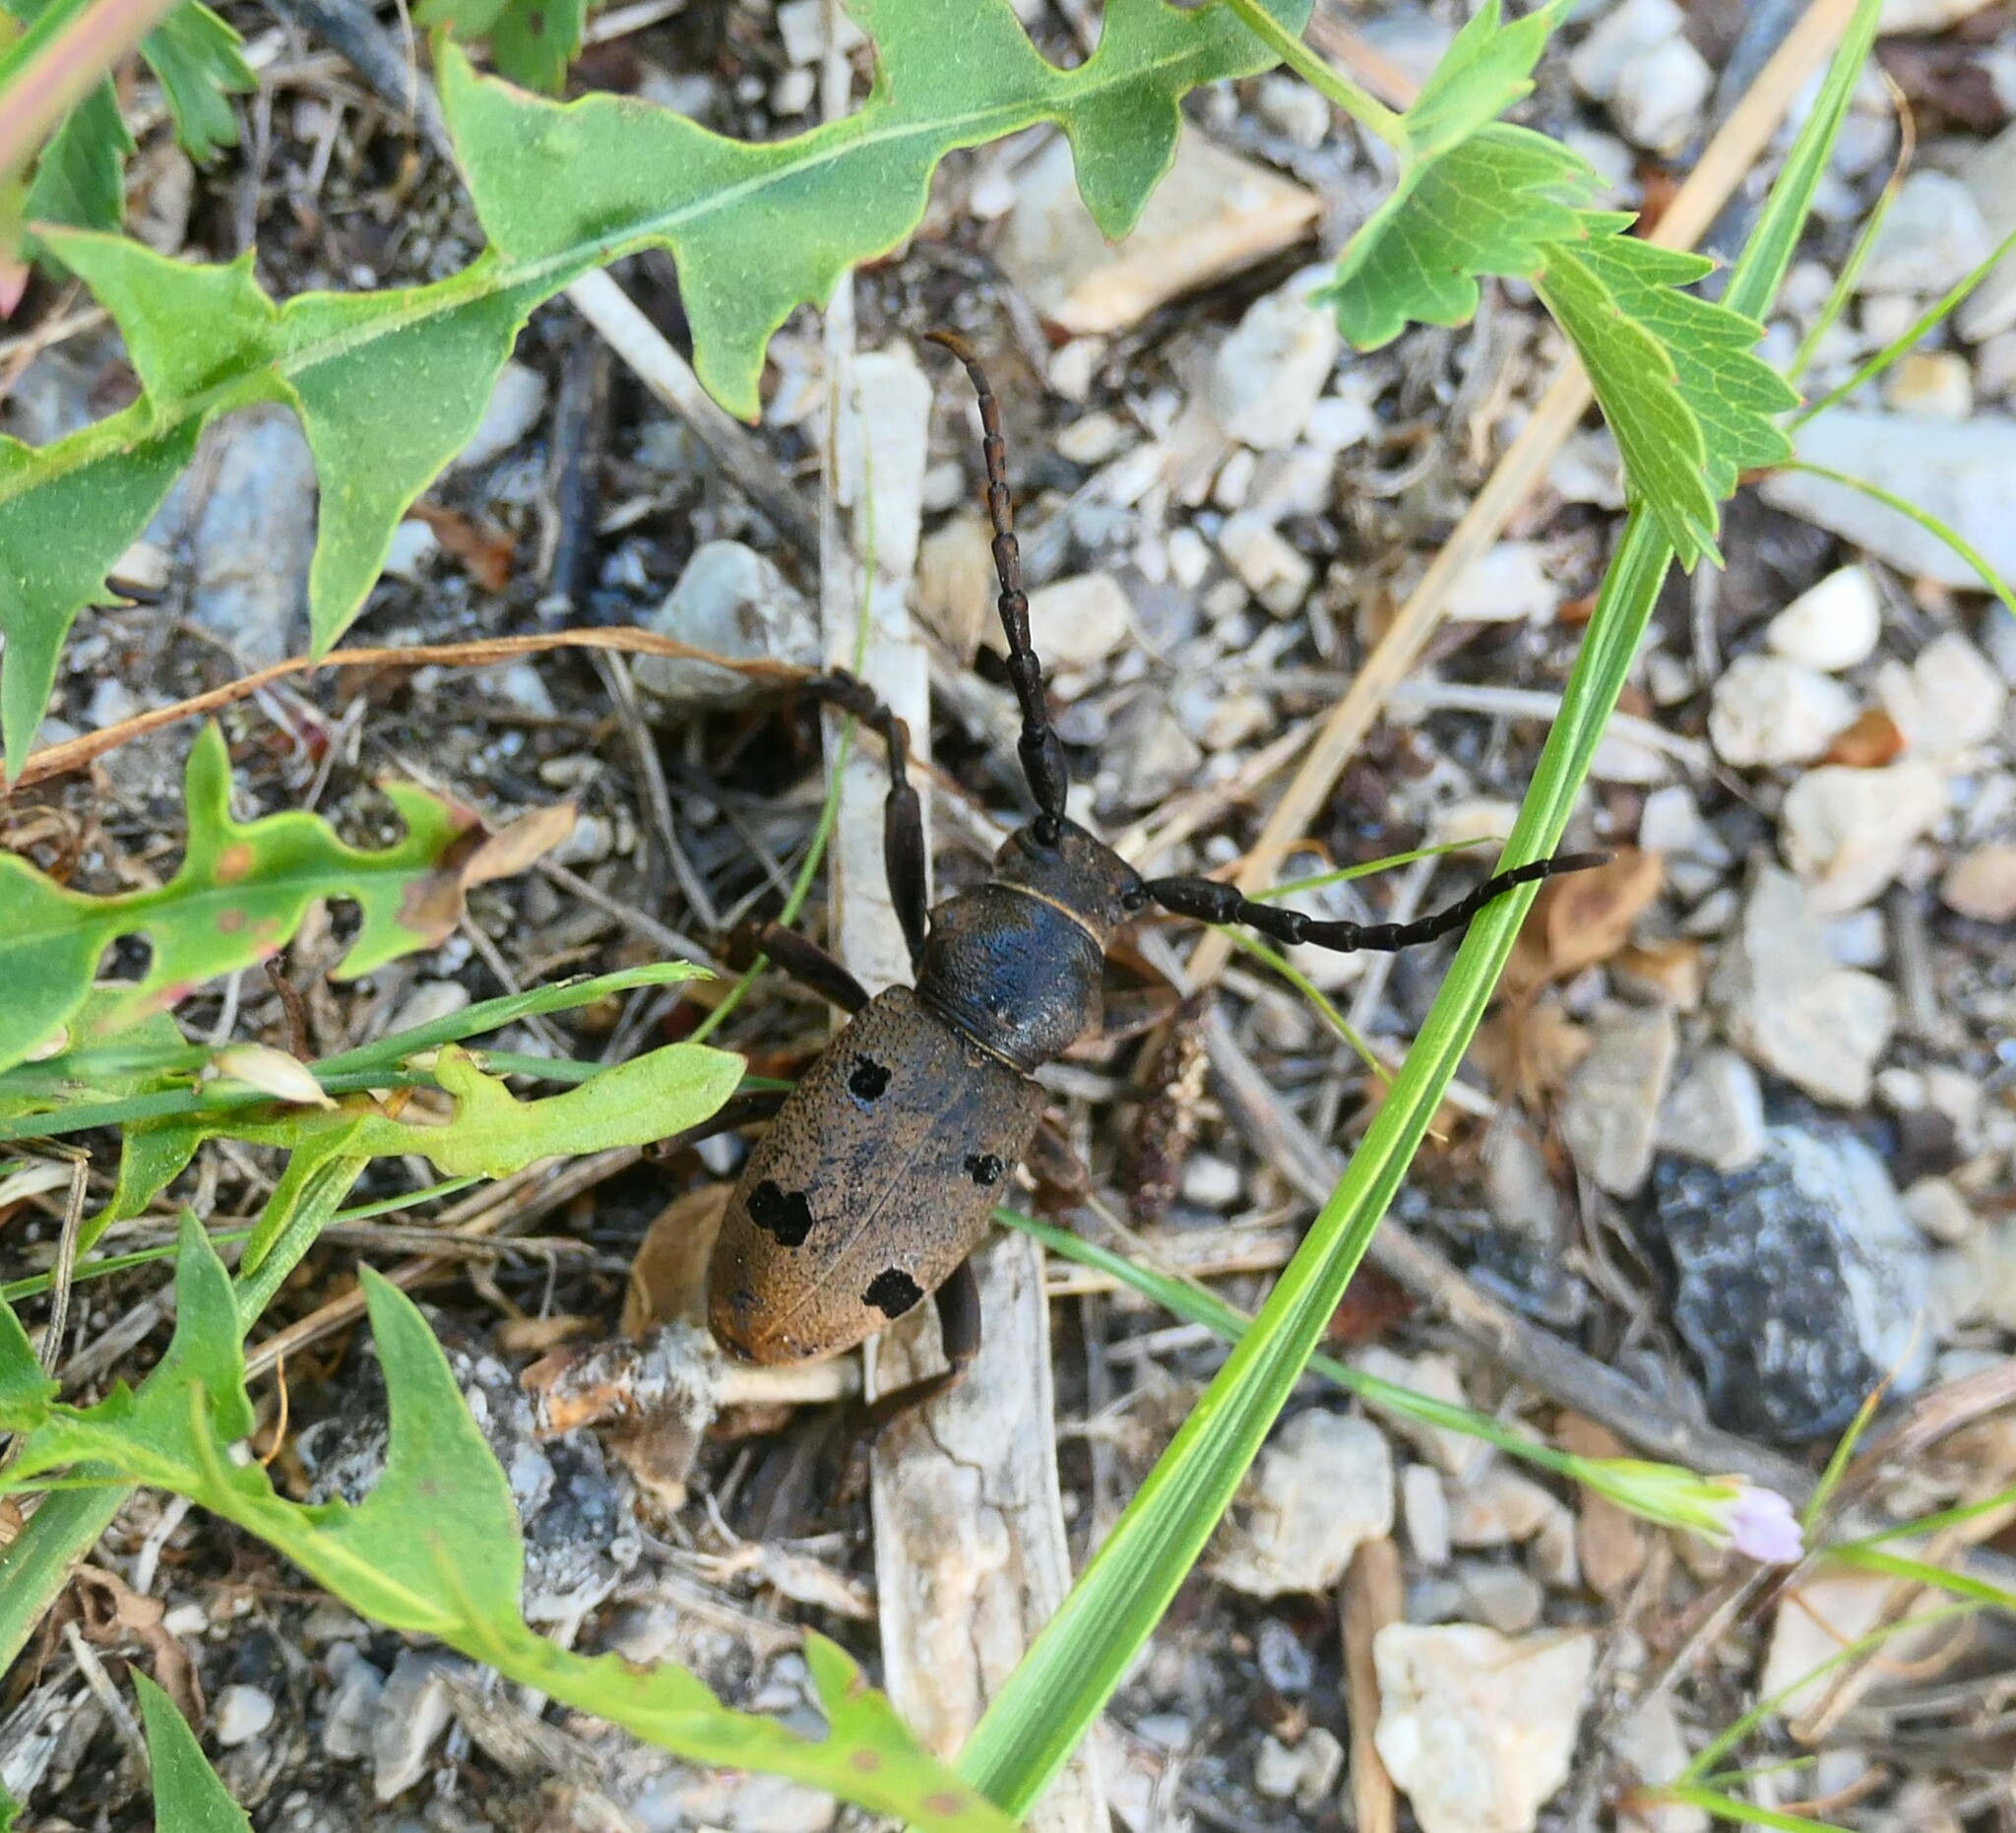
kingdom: Animalia
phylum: Arthropoda
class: Insecta
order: Coleoptera
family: Cerambycidae
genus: Herophila
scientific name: Herophila tristis
